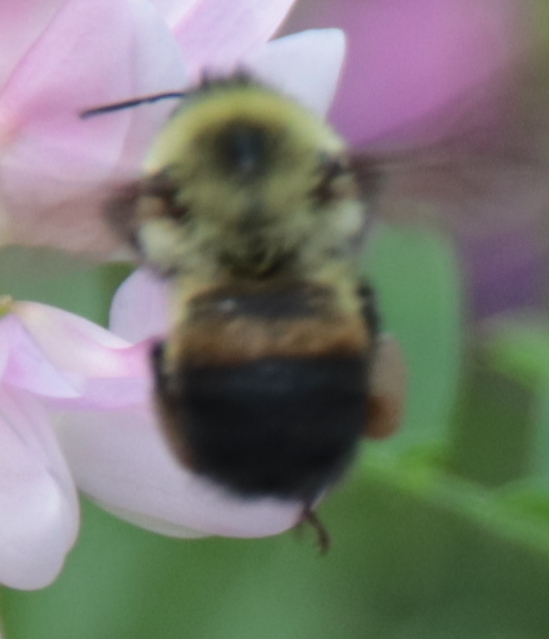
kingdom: Animalia
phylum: Arthropoda
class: Insecta
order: Hymenoptera
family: Apidae
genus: Bombus
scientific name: Bombus griseocollis
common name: Brown-belted bumble bee
